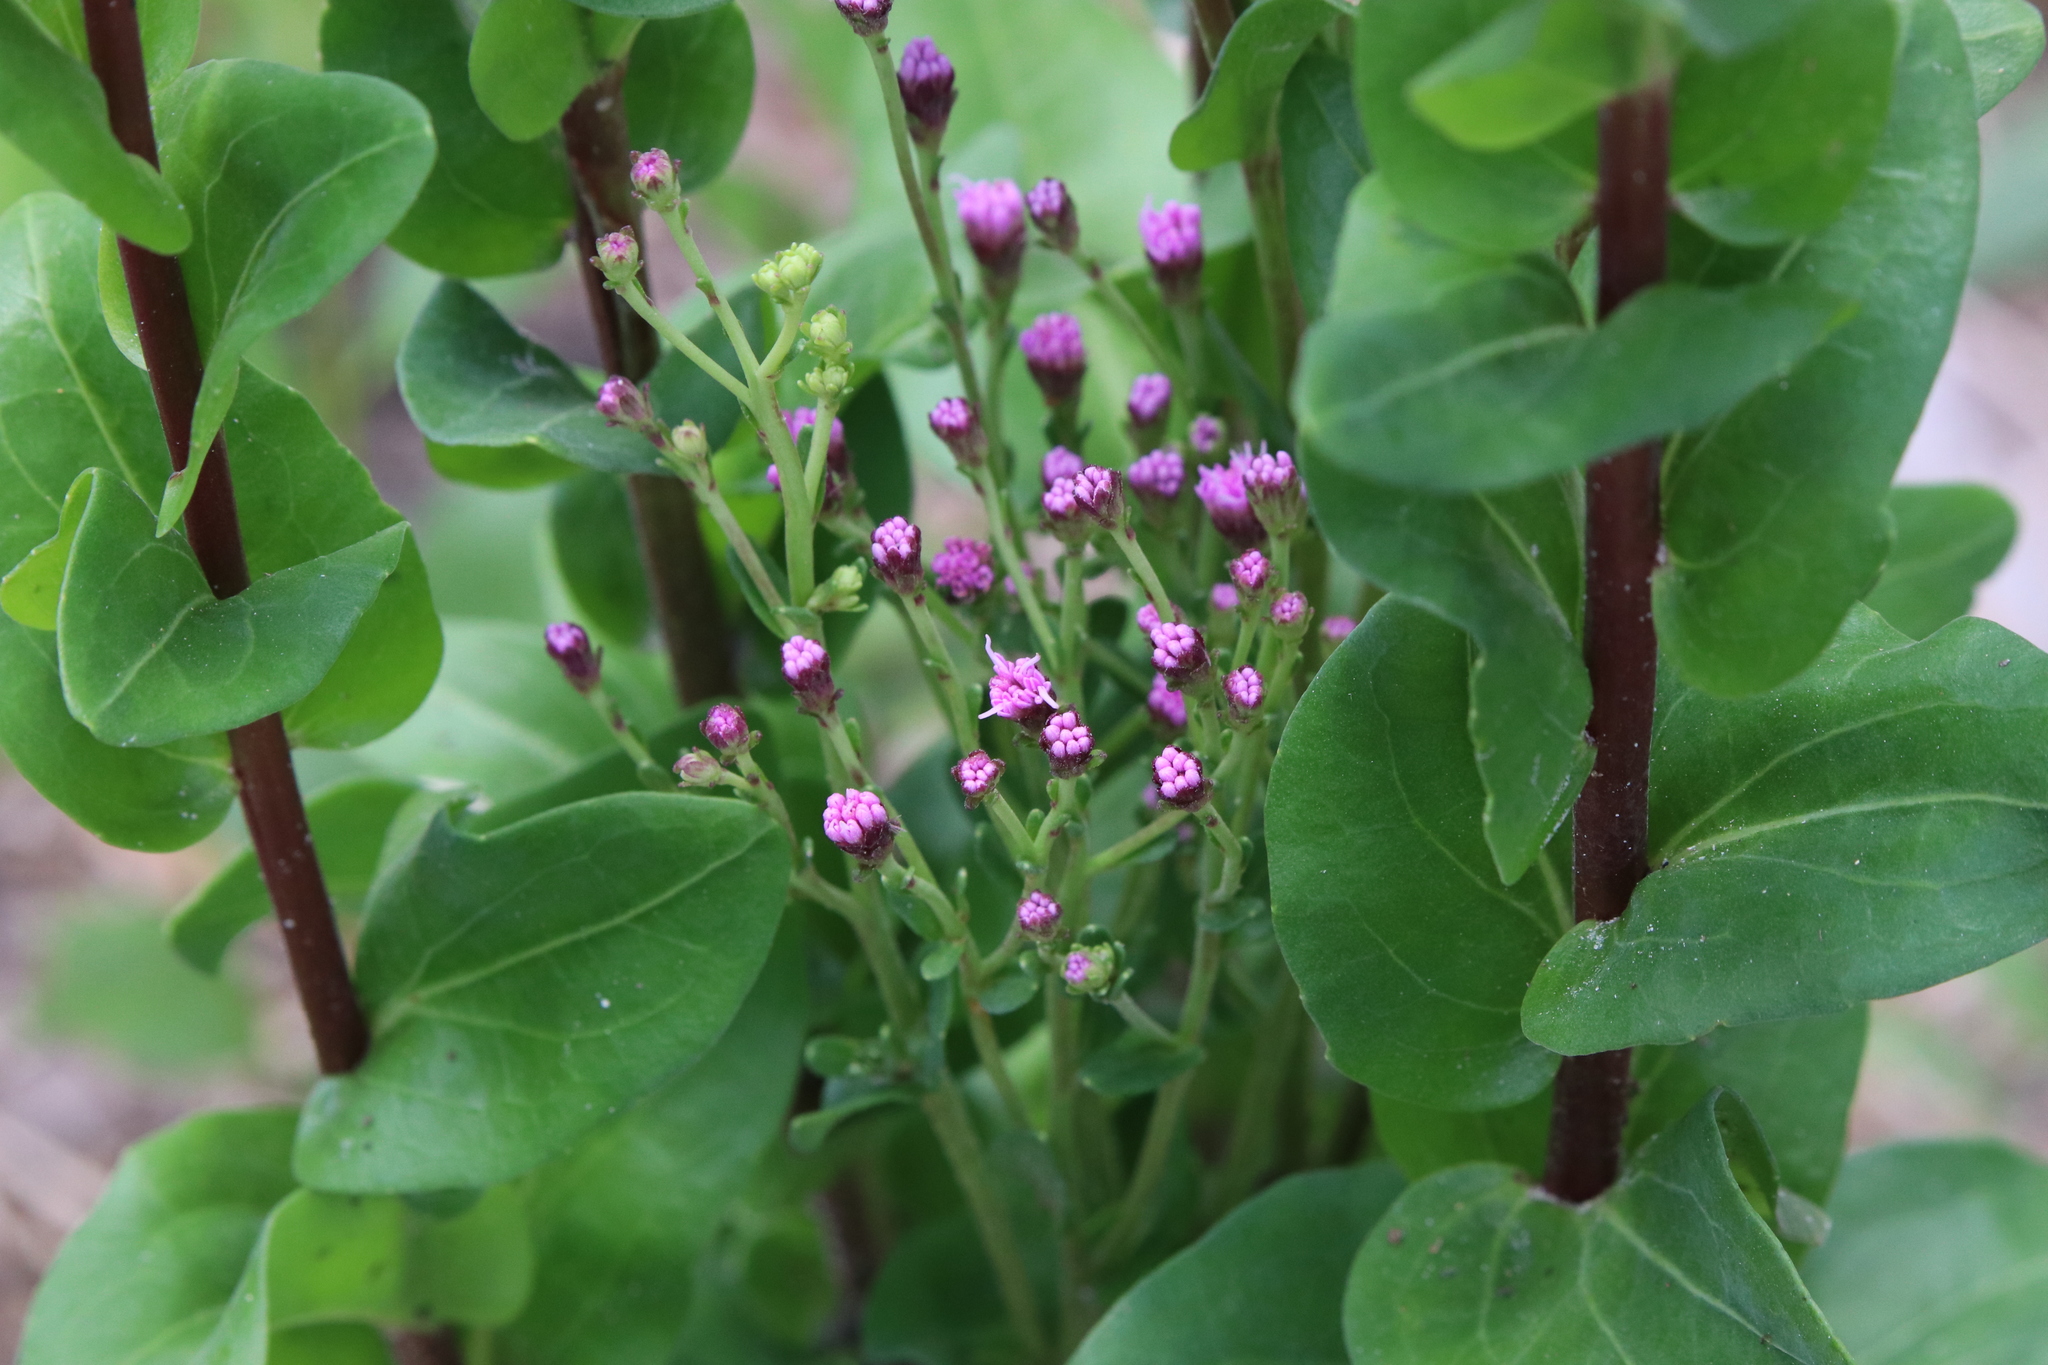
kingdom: Plantae
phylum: Tracheophyta
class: Magnoliopsida
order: Asterales
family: Asteraceae
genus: Carphephorus
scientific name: Carphephorus odoratissimus
